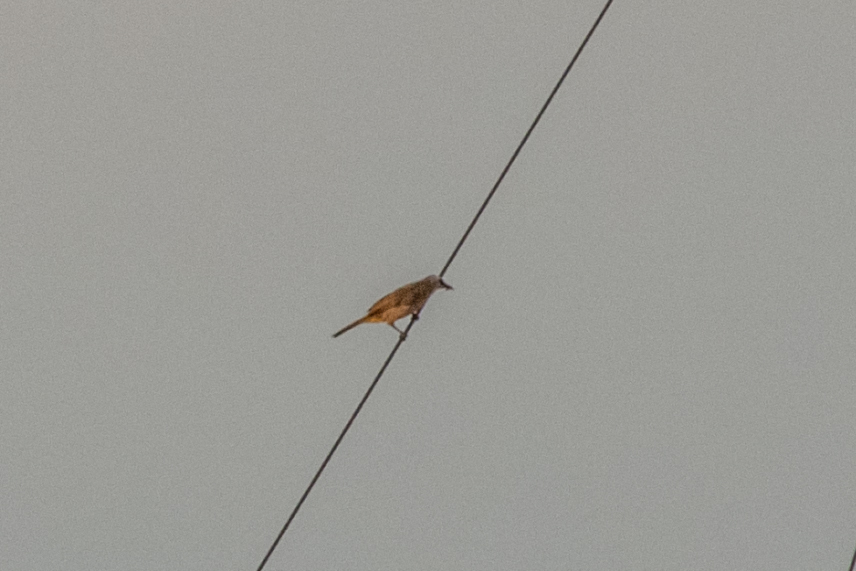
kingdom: Animalia
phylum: Chordata
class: Aves
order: Passeriformes
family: Pycnonotidae
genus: Pycnonotus
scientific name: Pycnonotus goiavier
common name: Yellow-vented bulbul
